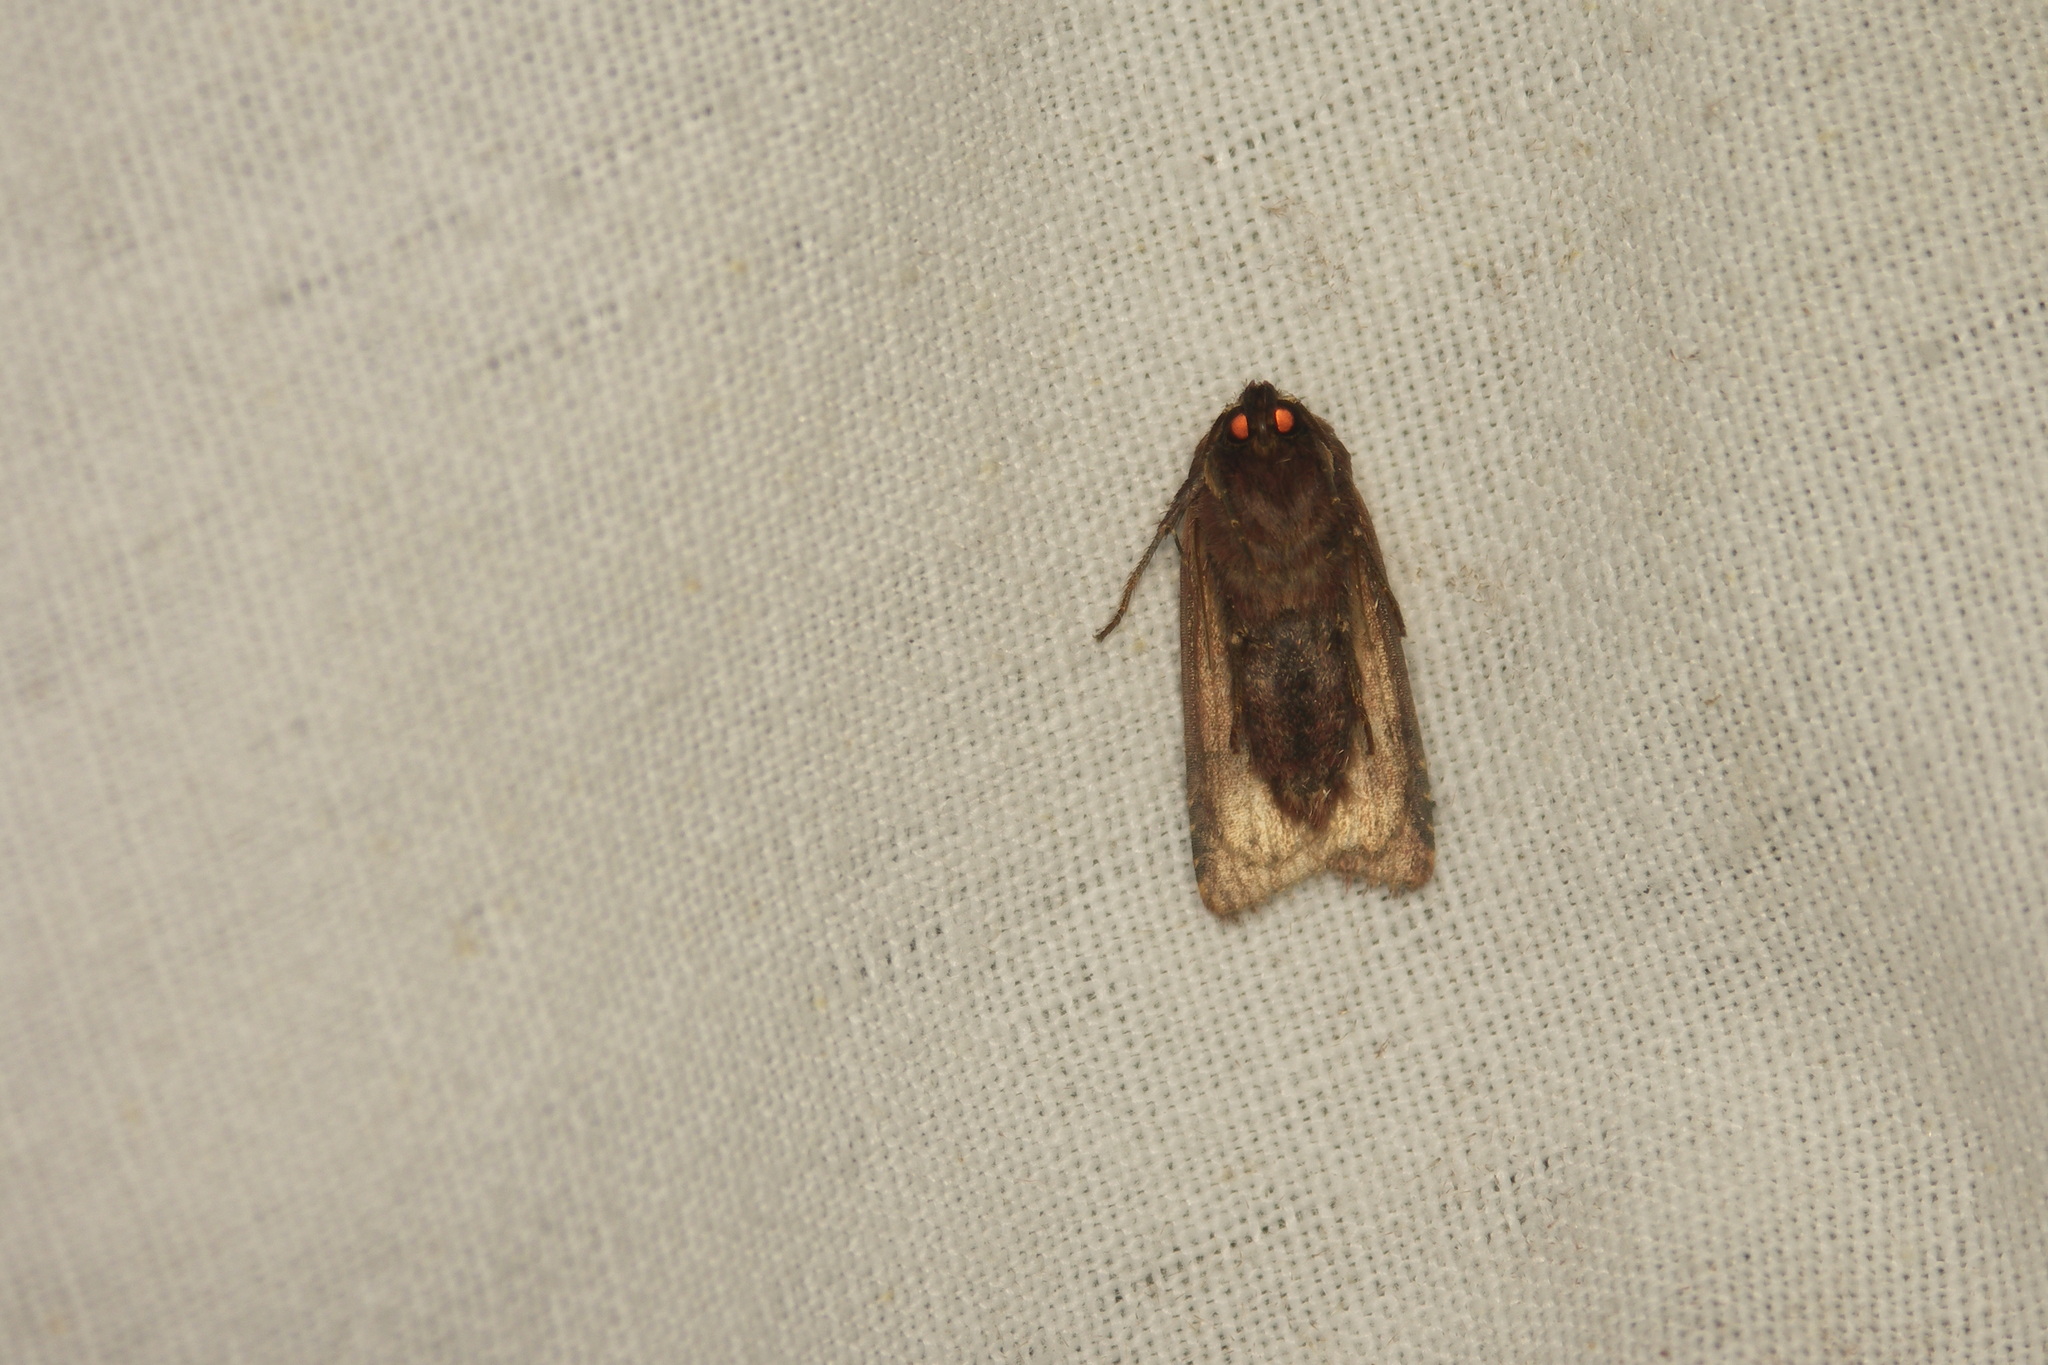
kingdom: Animalia
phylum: Arthropoda
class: Insecta
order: Lepidoptera
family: Noctuidae
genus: Ochropleura
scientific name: Ochropleura plecta
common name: Flame shoulder
